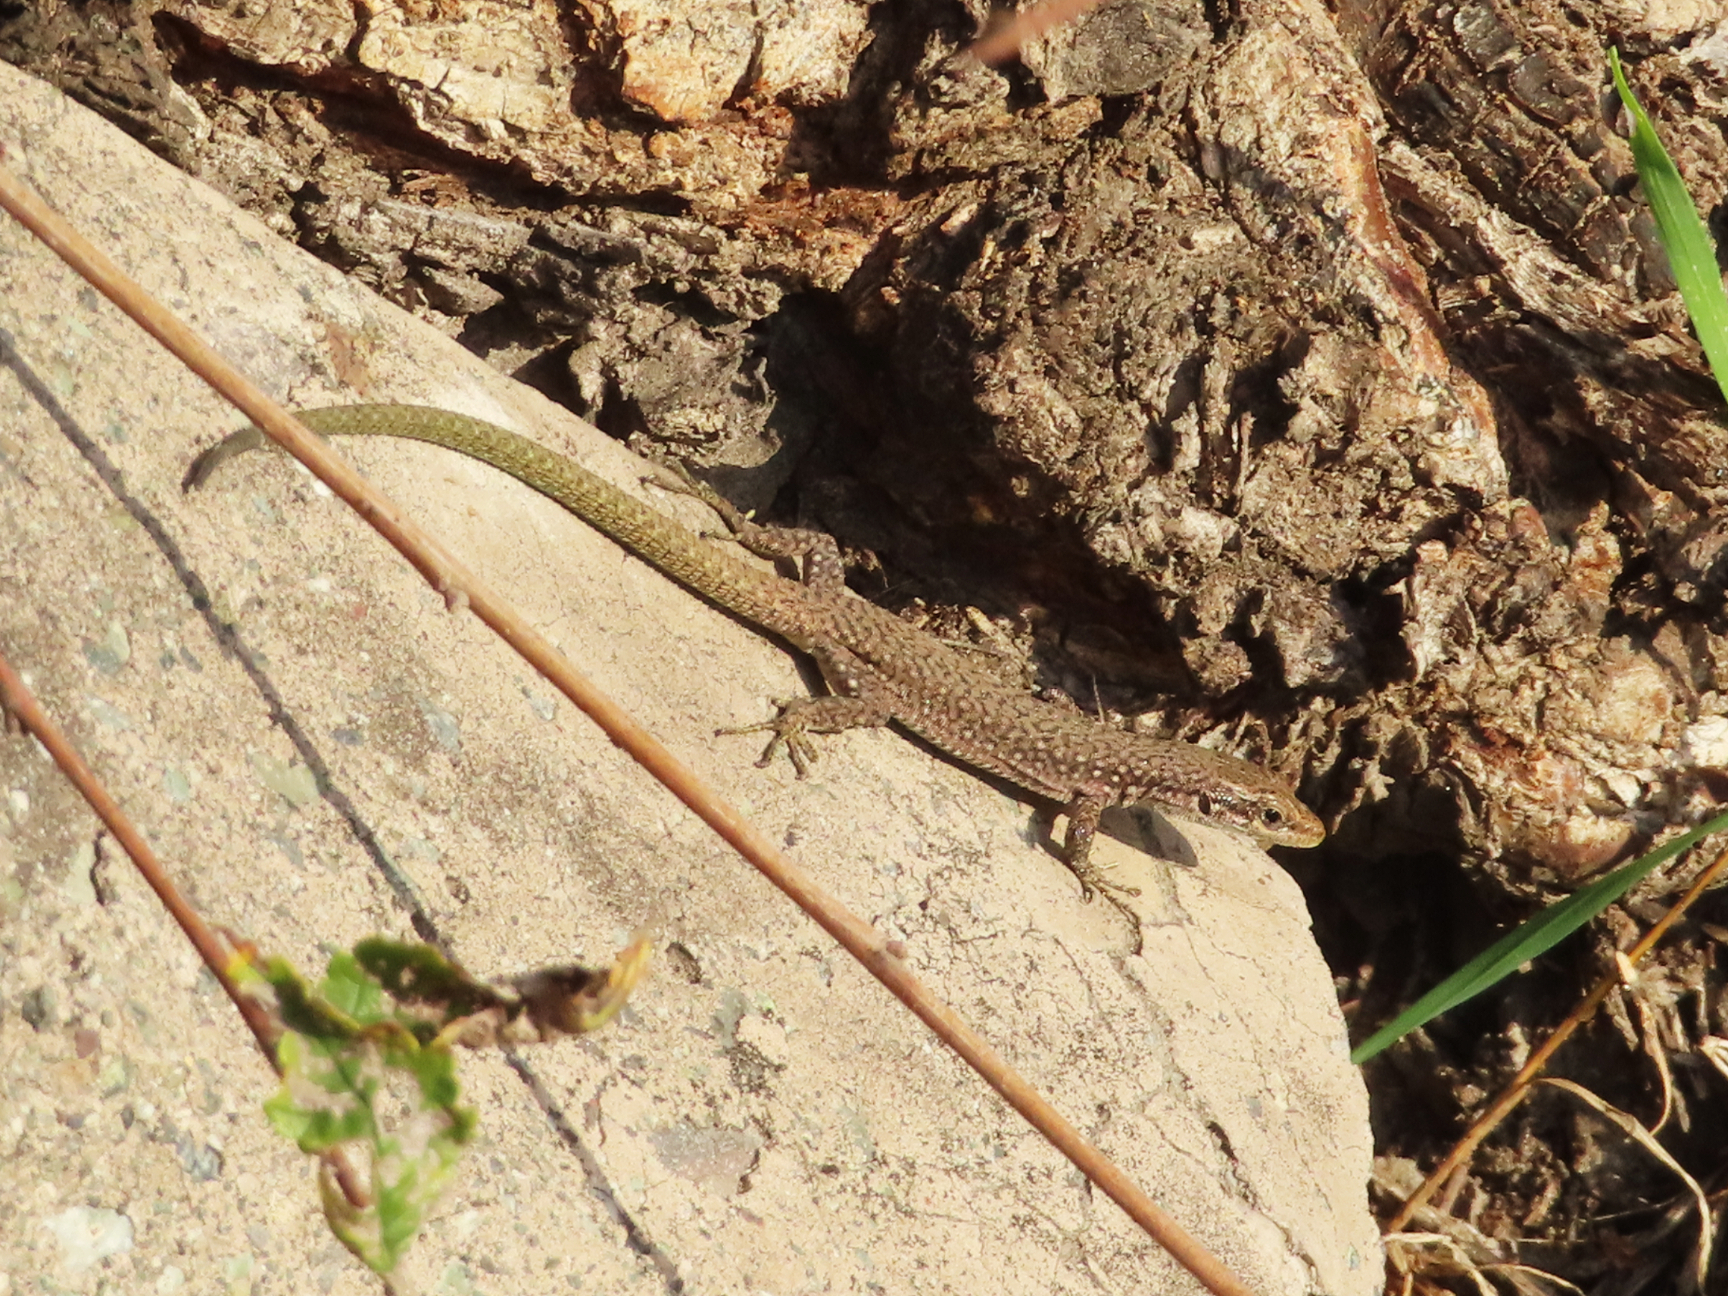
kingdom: Animalia
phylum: Chordata
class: Squamata
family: Lacertidae
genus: Darevskia
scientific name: Darevskia
